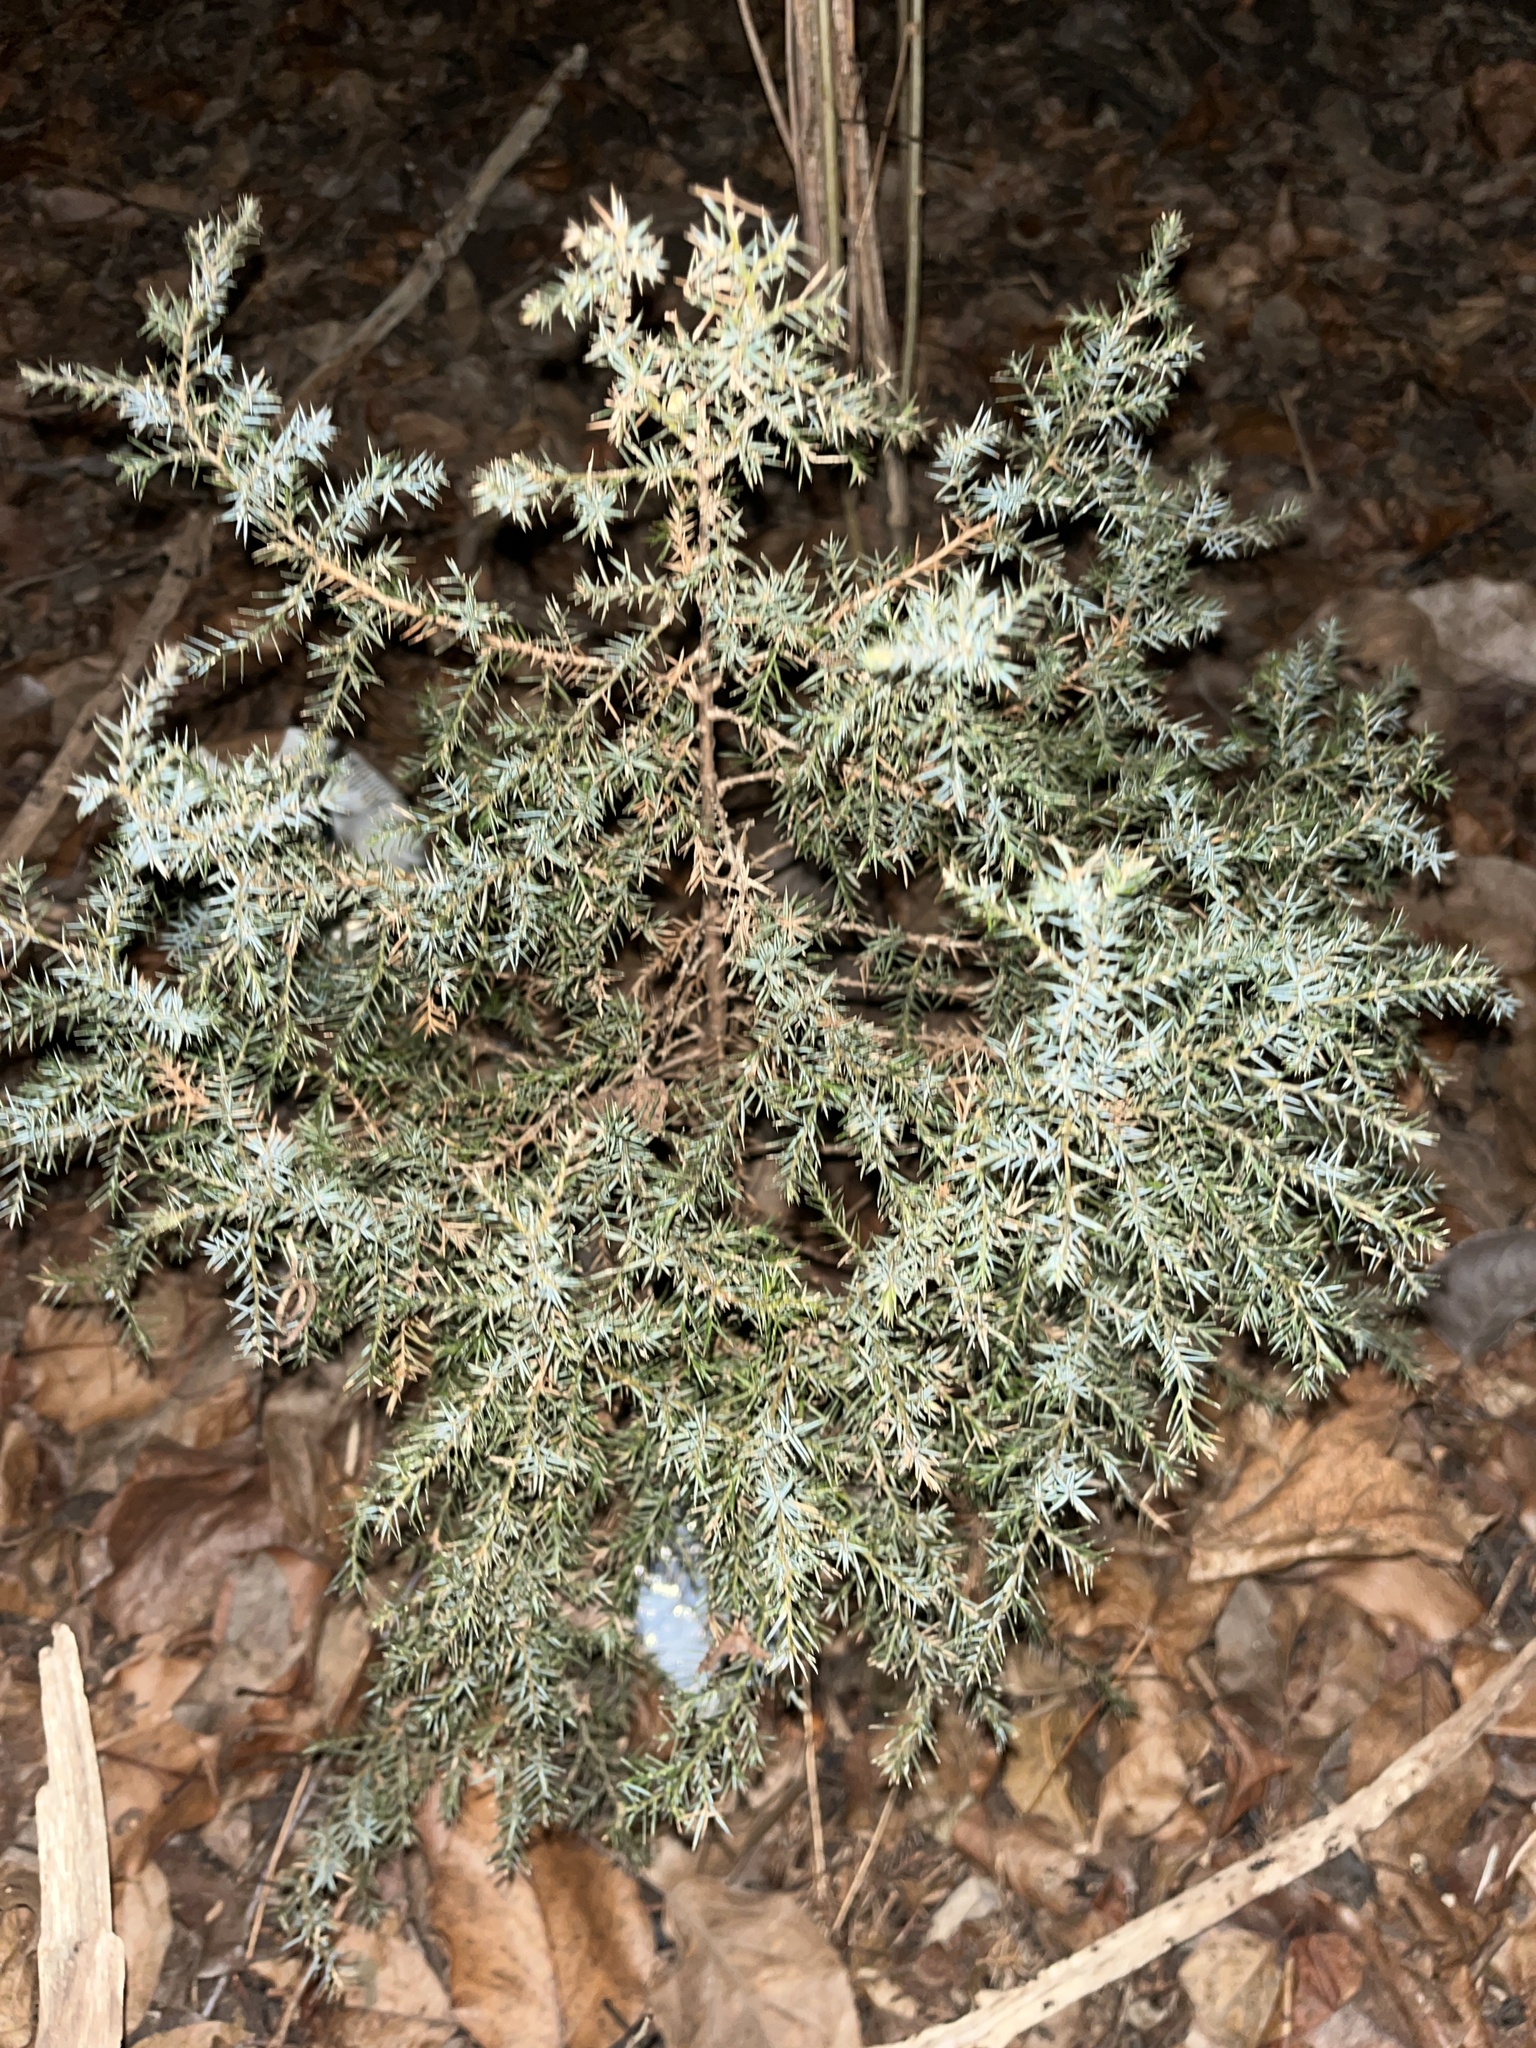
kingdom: Plantae
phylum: Tracheophyta
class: Pinopsida
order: Pinales
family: Cupressaceae
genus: Juniperus
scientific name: Juniperus communis
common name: Common juniper
